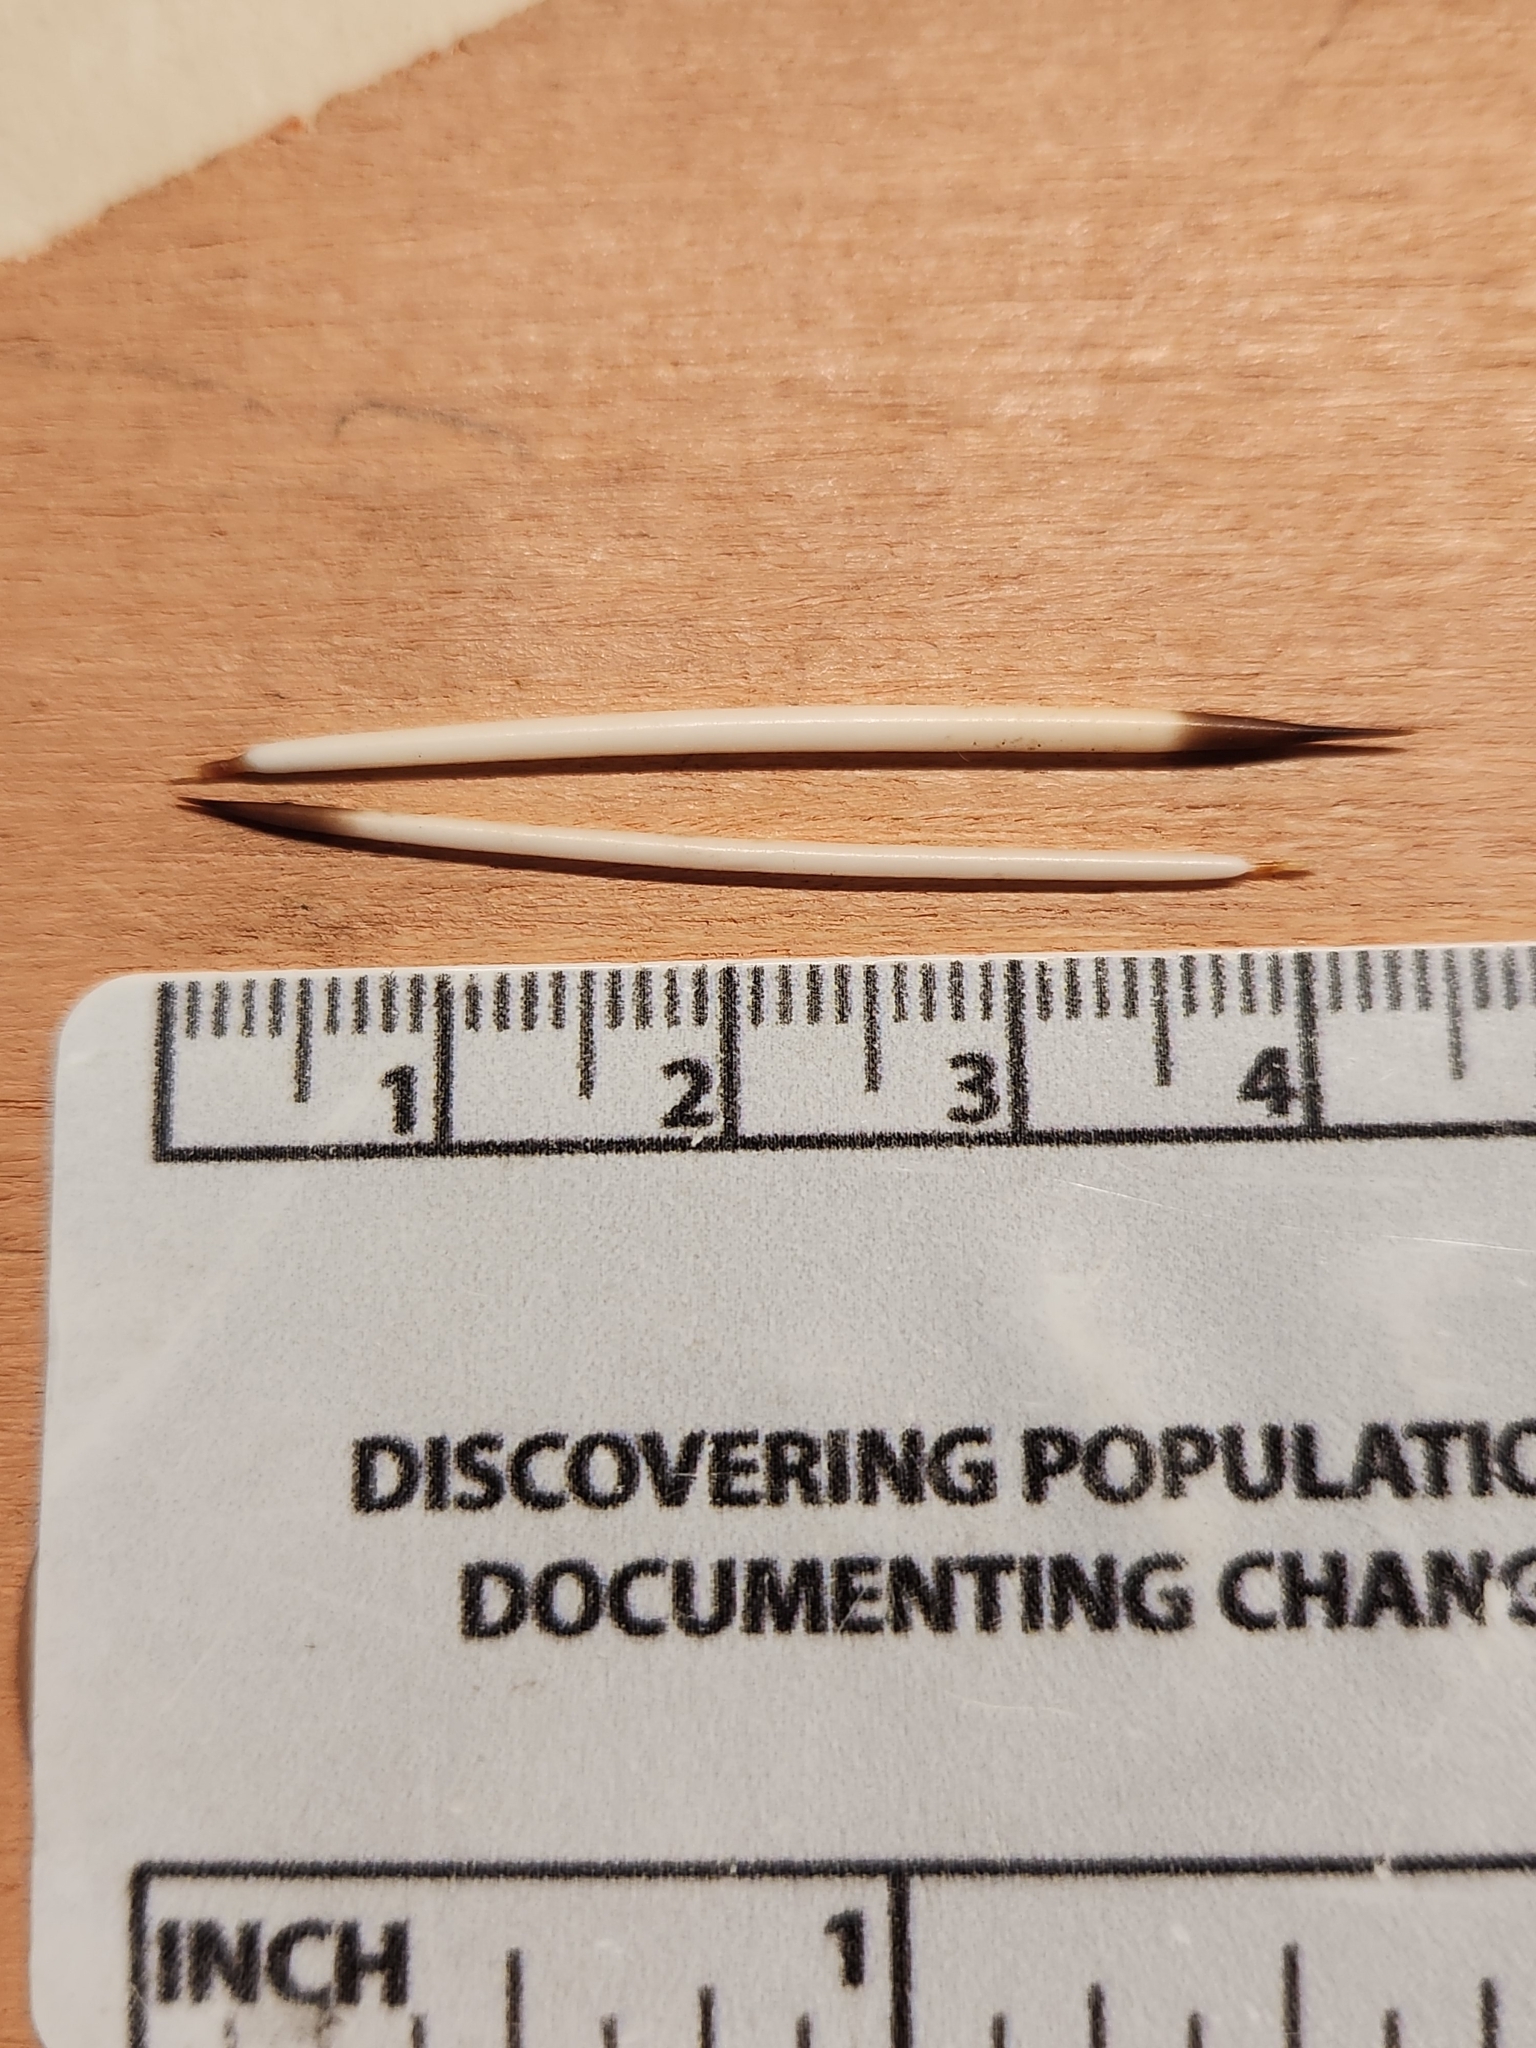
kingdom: Animalia
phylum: Chordata
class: Mammalia
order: Rodentia
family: Erethizontidae
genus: Erethizon
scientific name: Erethizon dorsatus
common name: North american porcupine
